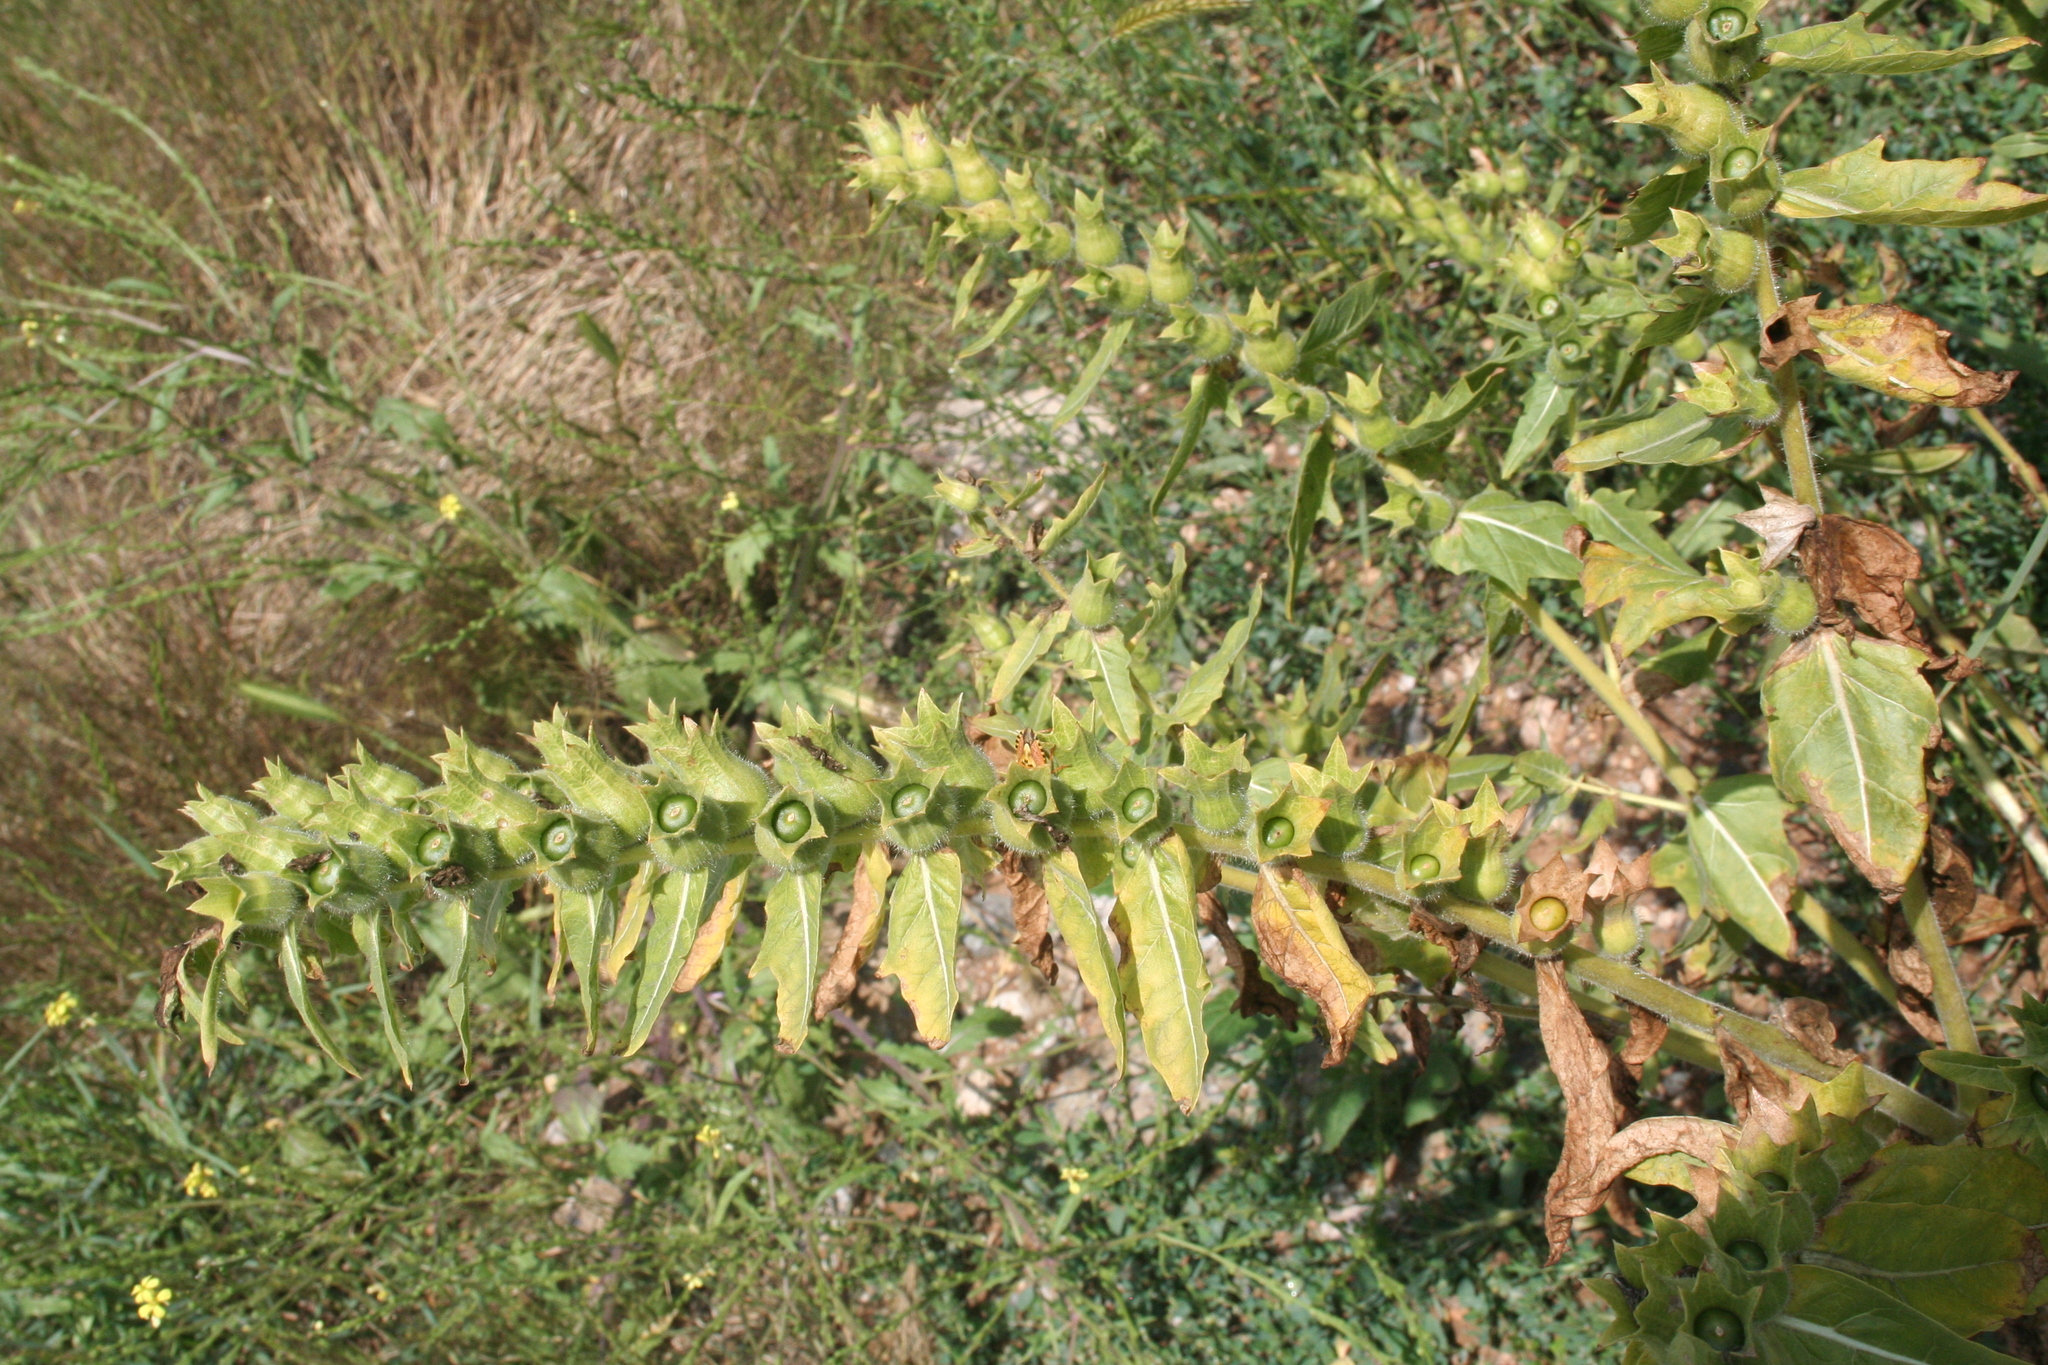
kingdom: Plantae
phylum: Tracheophyta
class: Magnoliopsida
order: Solanales
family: Solanaceae
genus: Hyoscyamus
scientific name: Hyoscyamus niger
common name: Henbane
